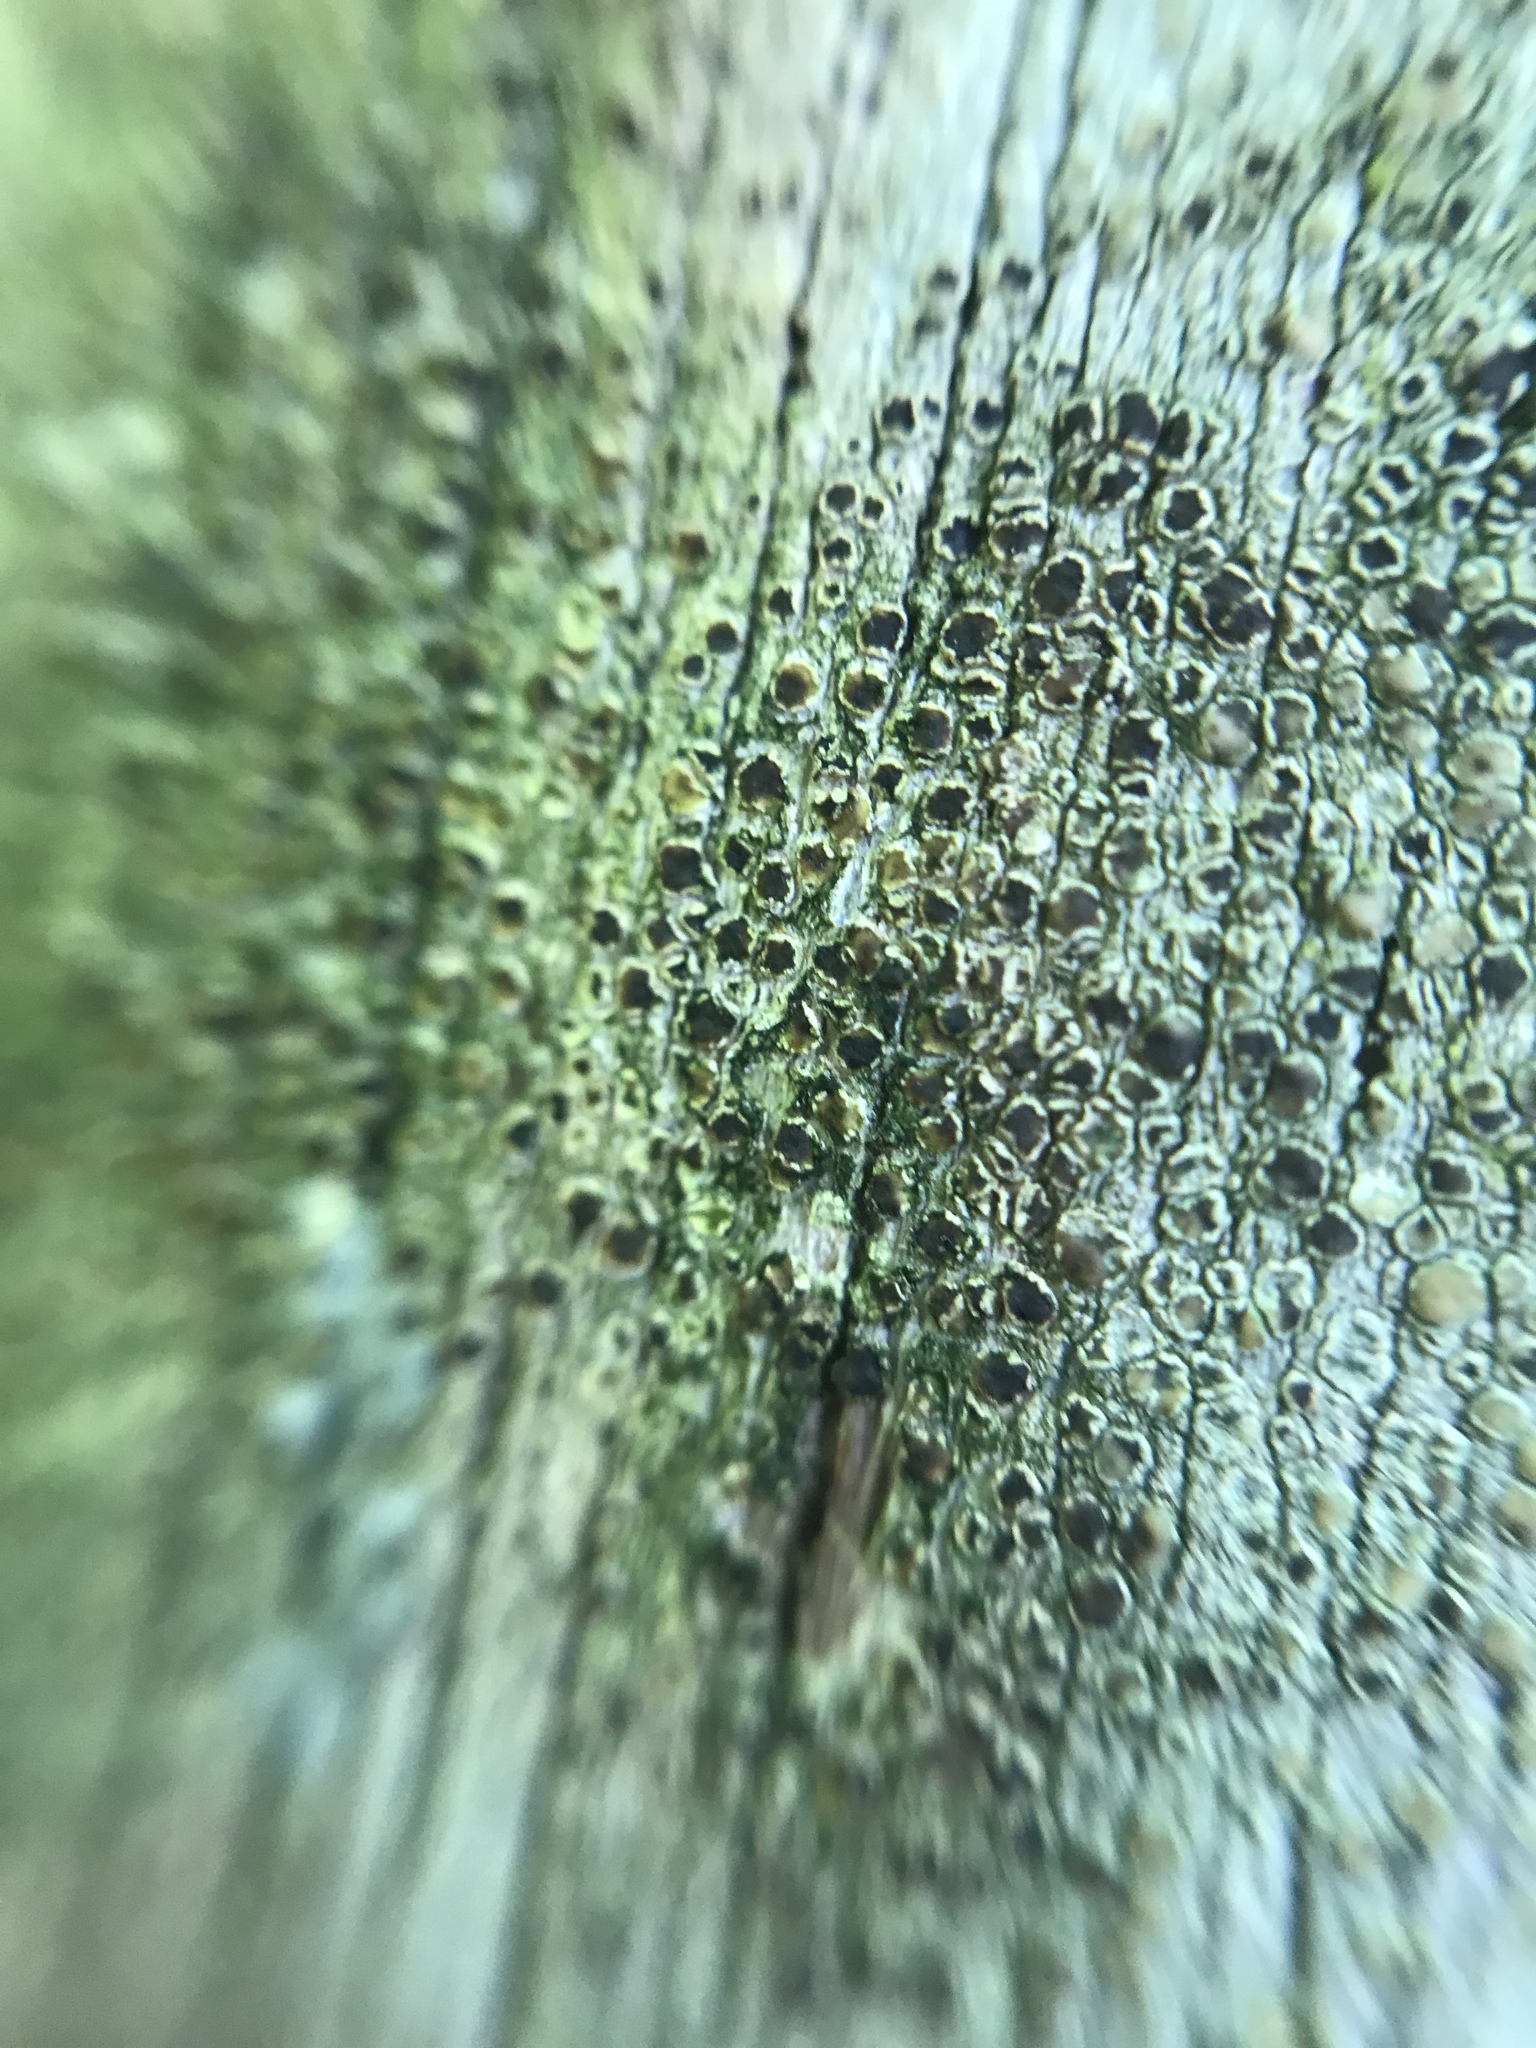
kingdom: Fungi
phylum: Ascomycota
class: Lecanoromycetes
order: Lecanorales
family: Lecanoraceae
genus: Lecanora
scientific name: Lecanora strobilina
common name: Mealy rim-lichen
